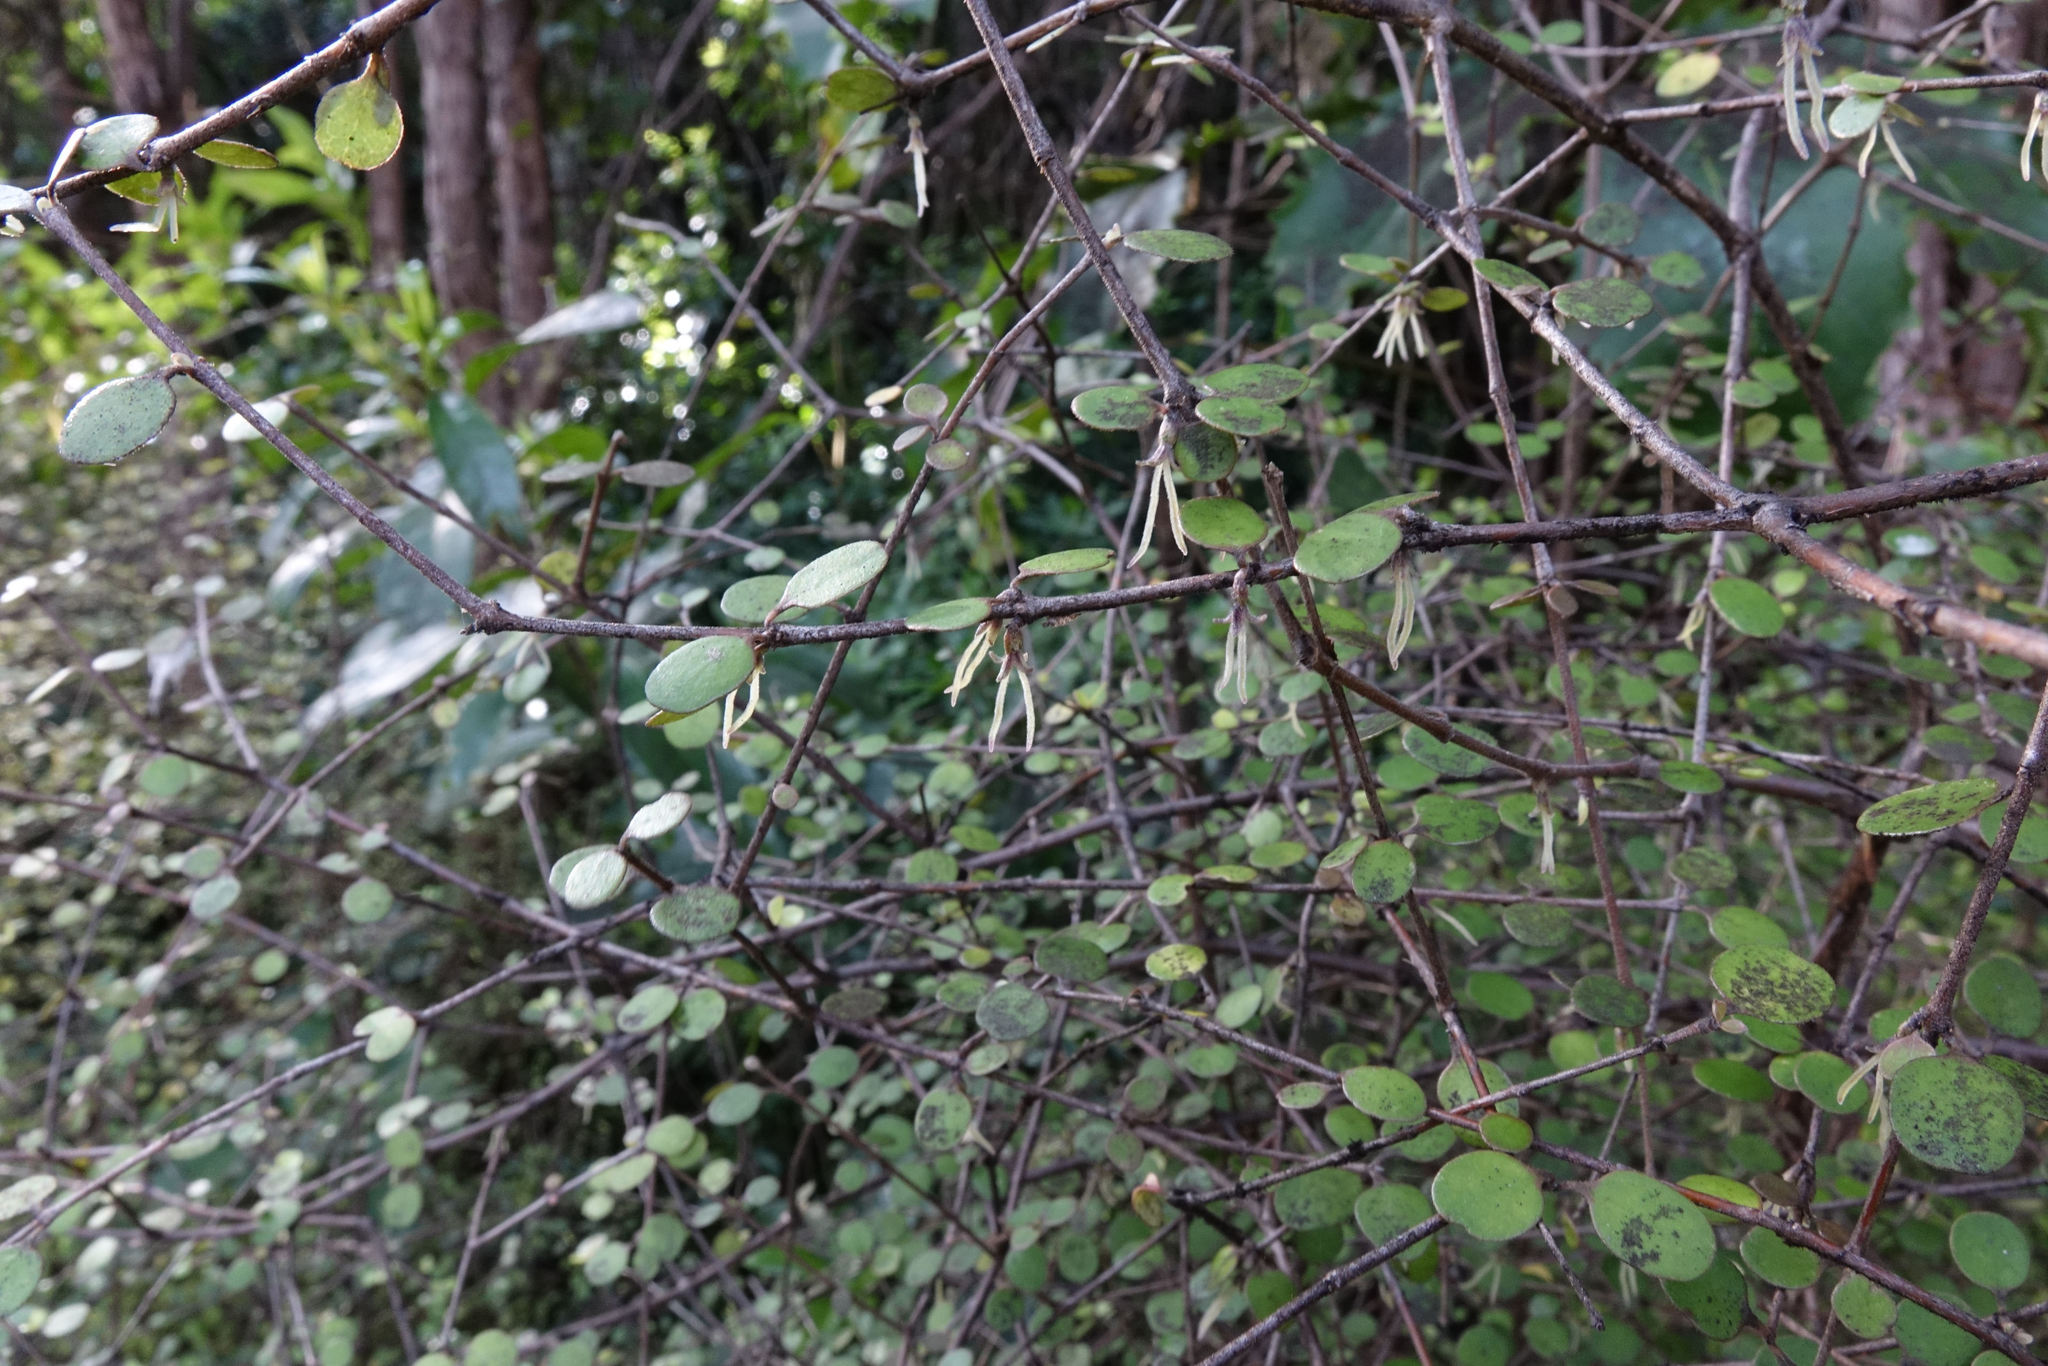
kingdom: Plantae
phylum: Tracheophyta
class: Magnoliopsida
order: Gentianales
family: Rubiaceae
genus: Coprosma
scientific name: Coprosma crassifolia
